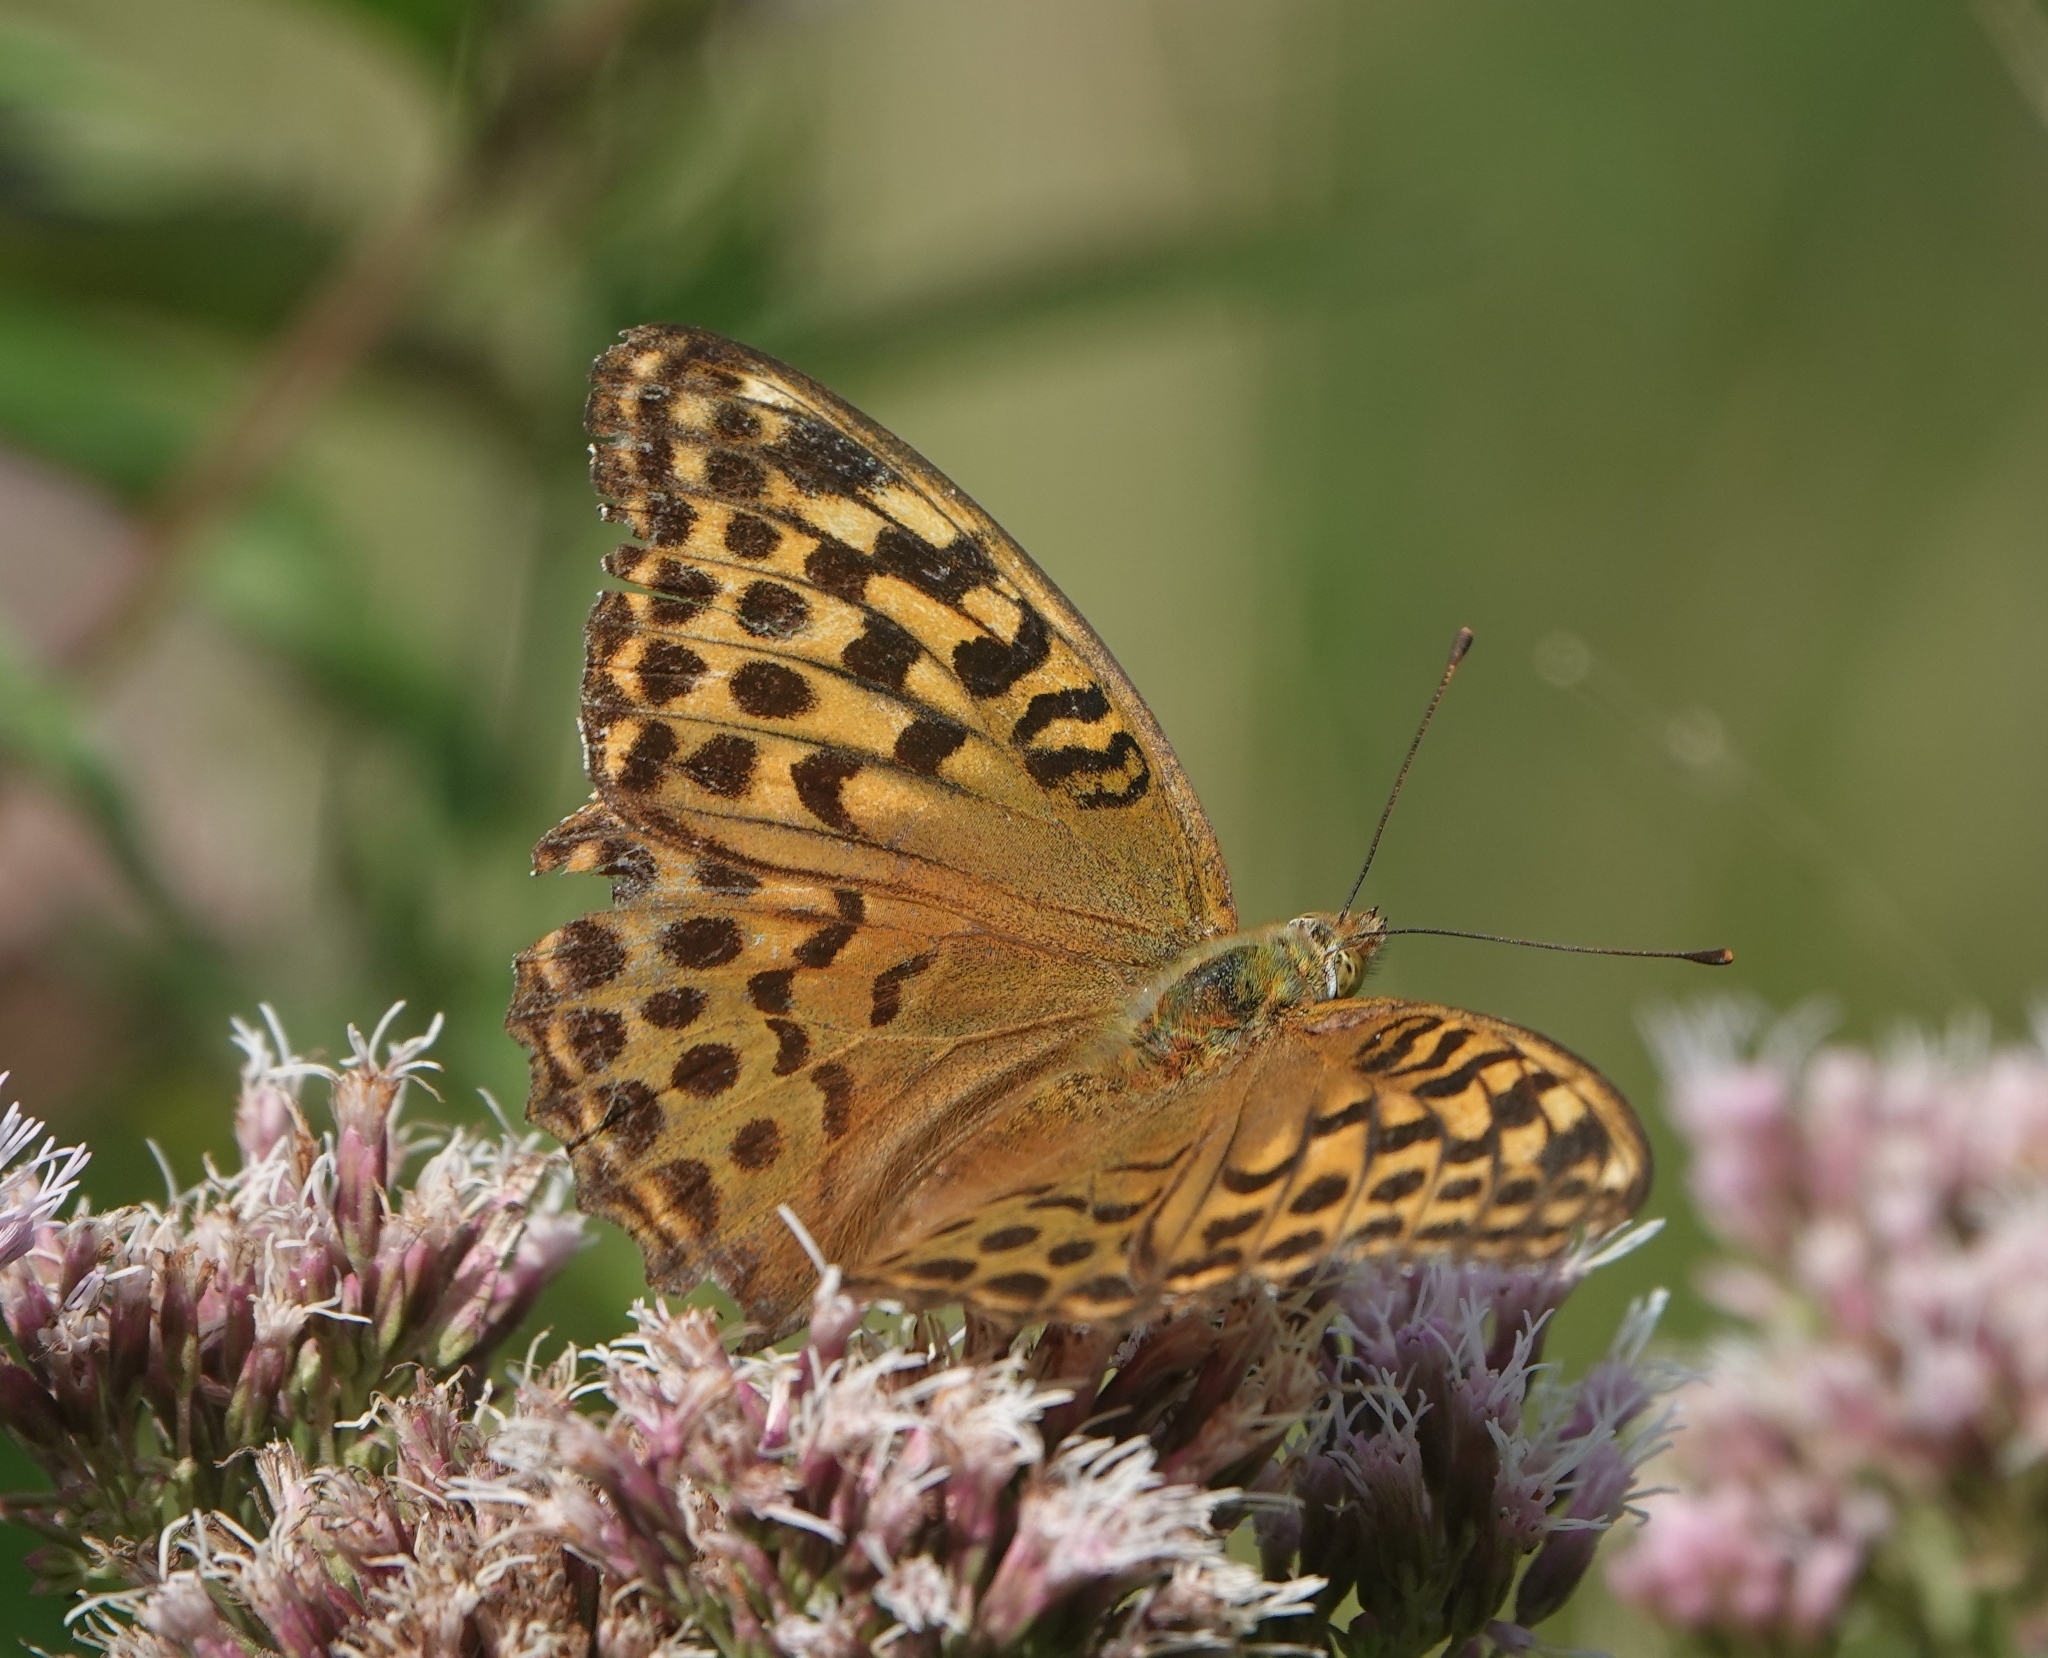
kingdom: Animalia
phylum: Arthropoda
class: Insecta
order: Lepidoptera
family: Nymphalidae
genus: Argynnis
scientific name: Argynnis paphia
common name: Silver-washed fritillary
